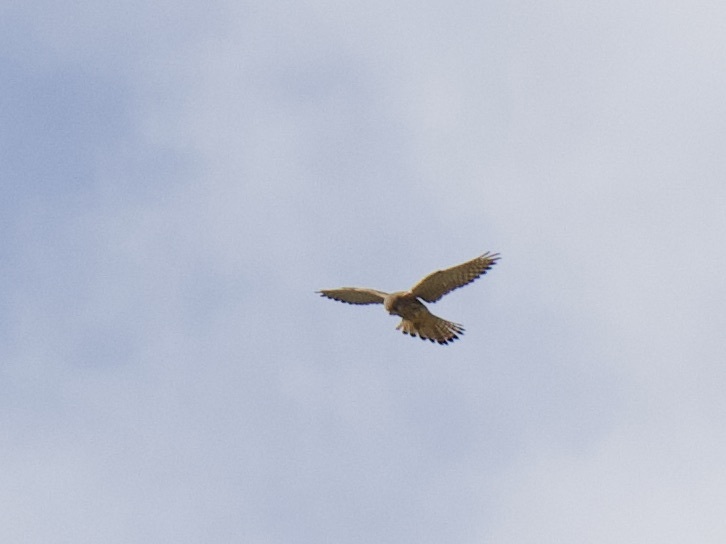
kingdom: Animalia
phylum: Chordata
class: Aves
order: Falconiformes
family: Falconidae
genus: Falco
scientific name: Falco tinnunculus
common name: Common kestrel
